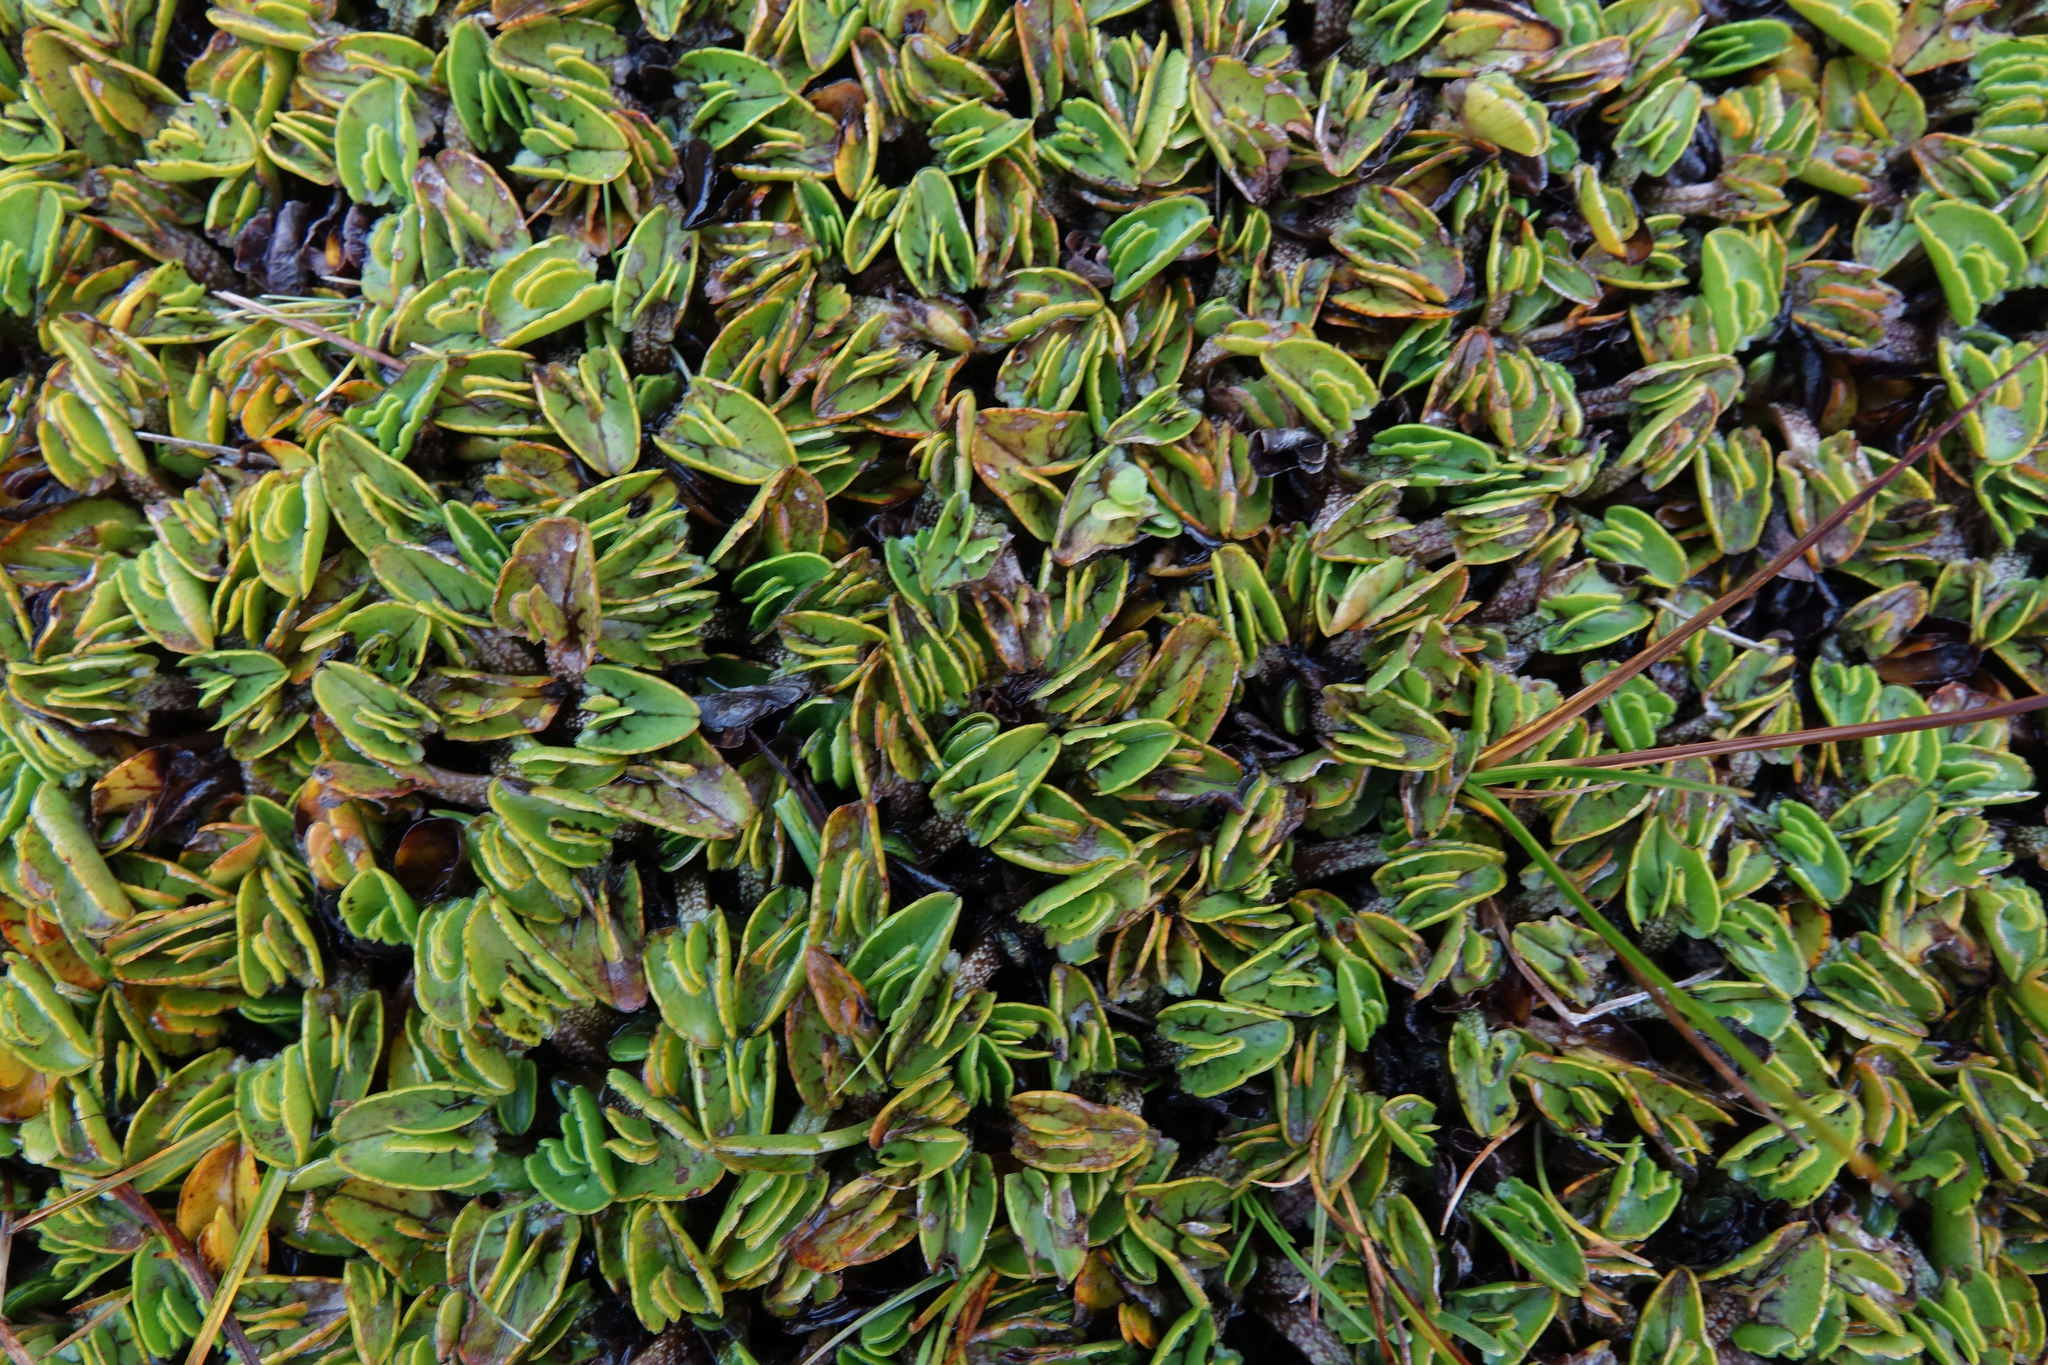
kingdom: Plantae
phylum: Tracheophyta
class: Magnoliopsida
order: Ranunculales
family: Ranunculaceae
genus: Caltha
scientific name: Caltha obtusa
